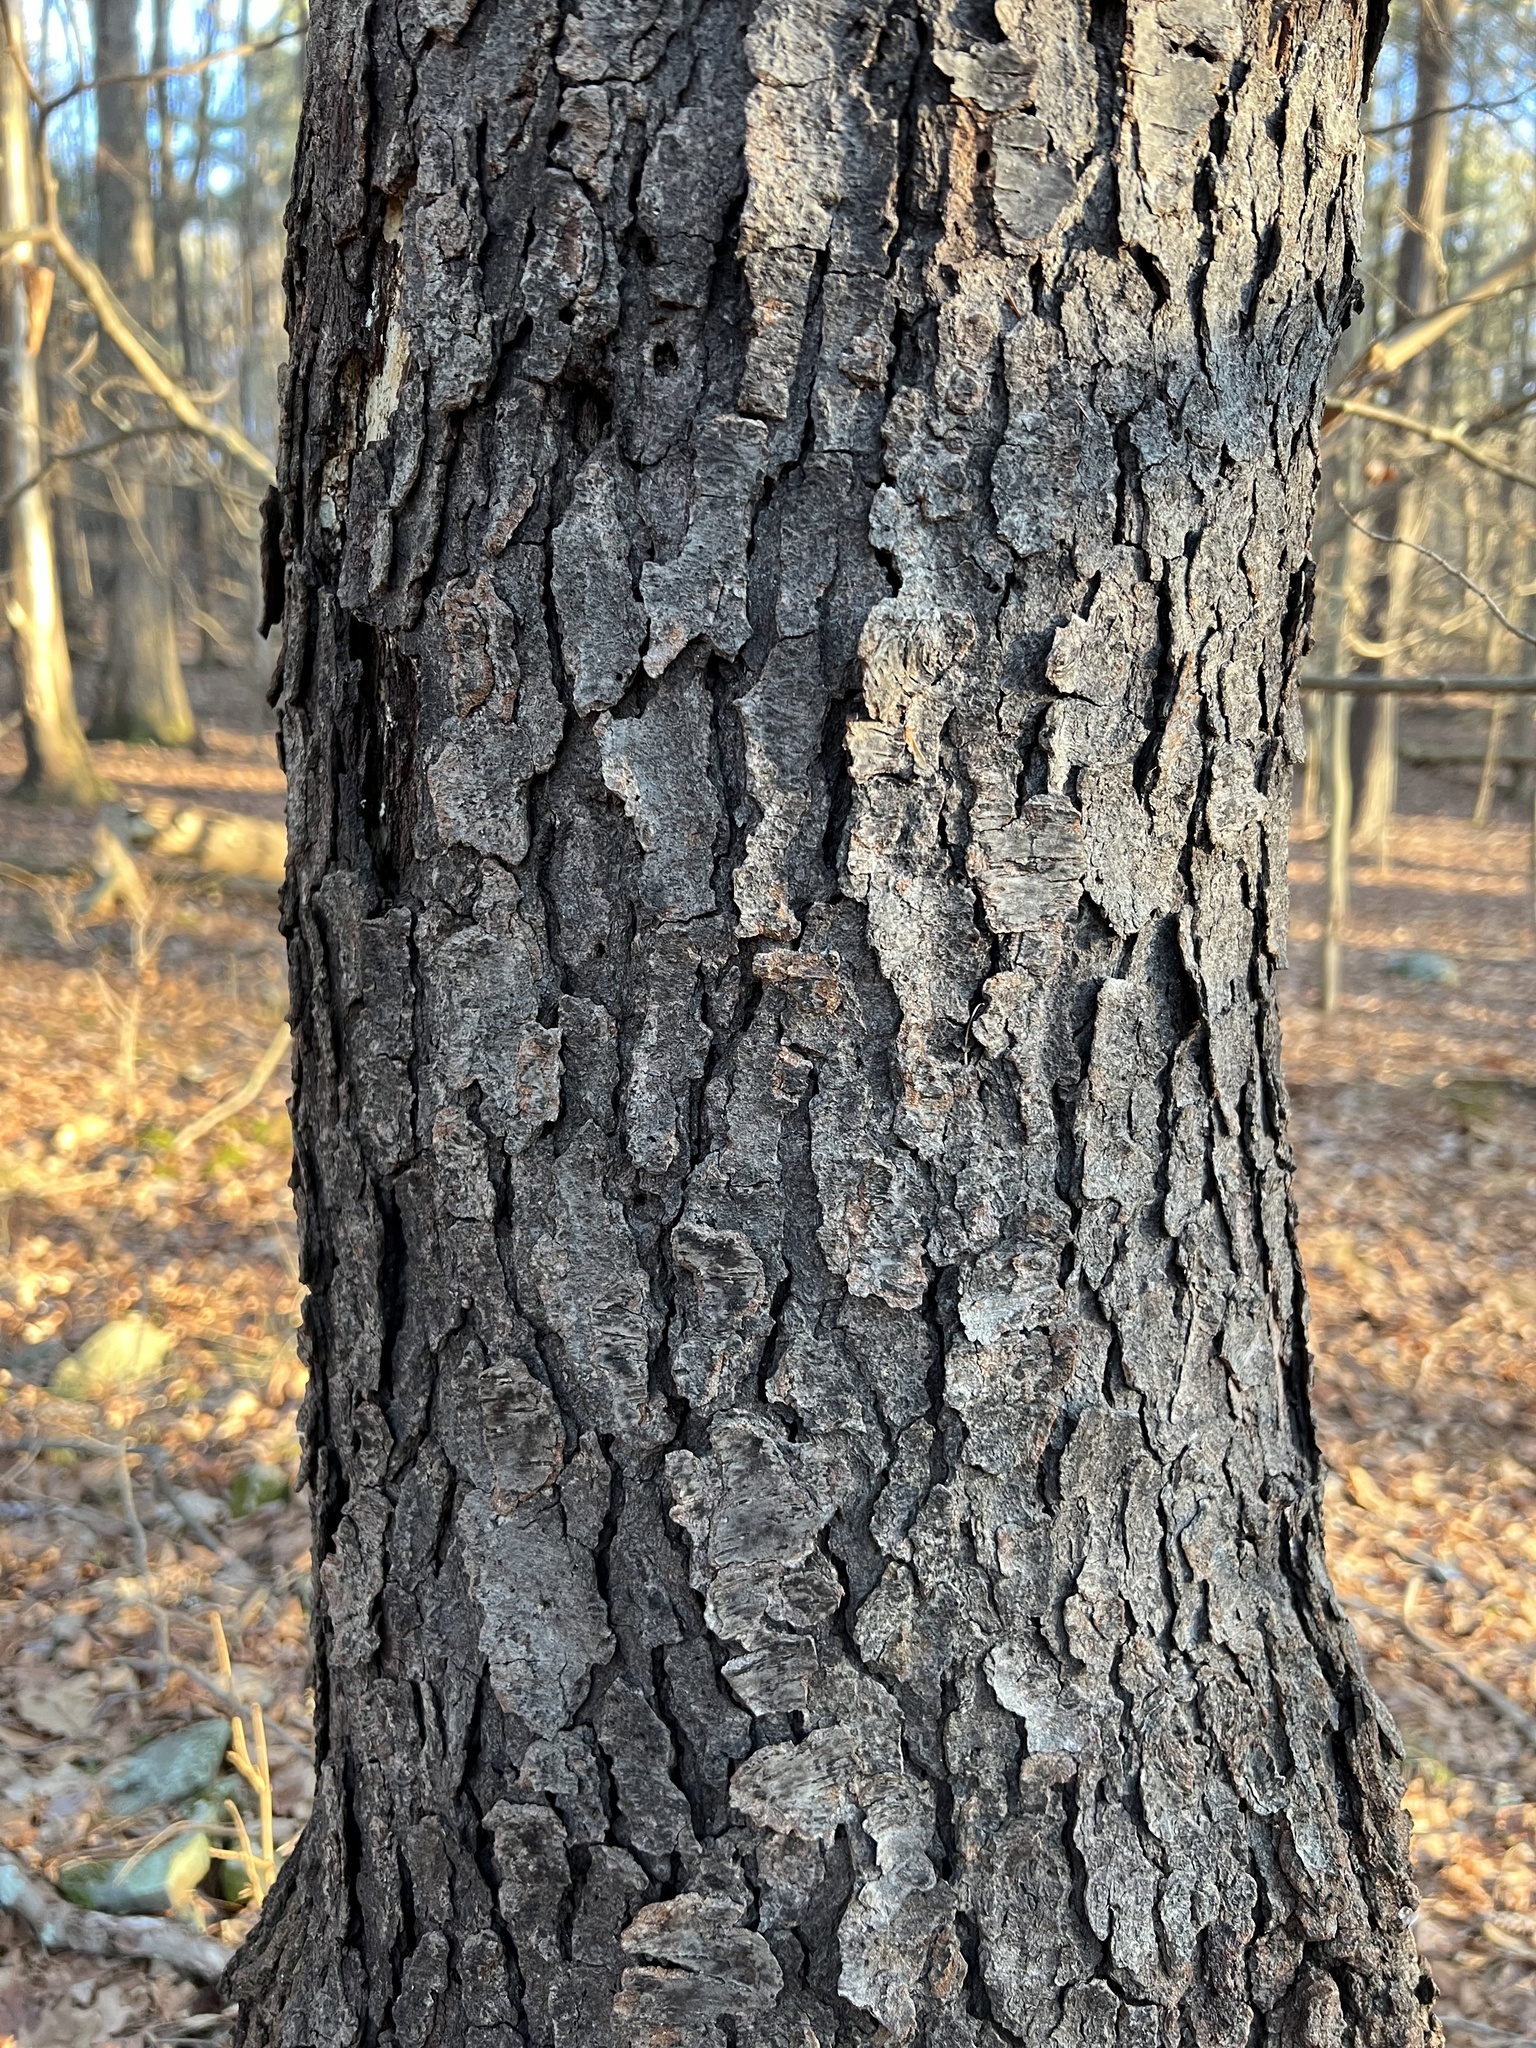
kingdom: Plantae
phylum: Tracheophyta
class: Magnoliopsida
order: Rosales
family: Rosaceae
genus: Prunus
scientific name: Prunus serotina
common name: Black cherry
